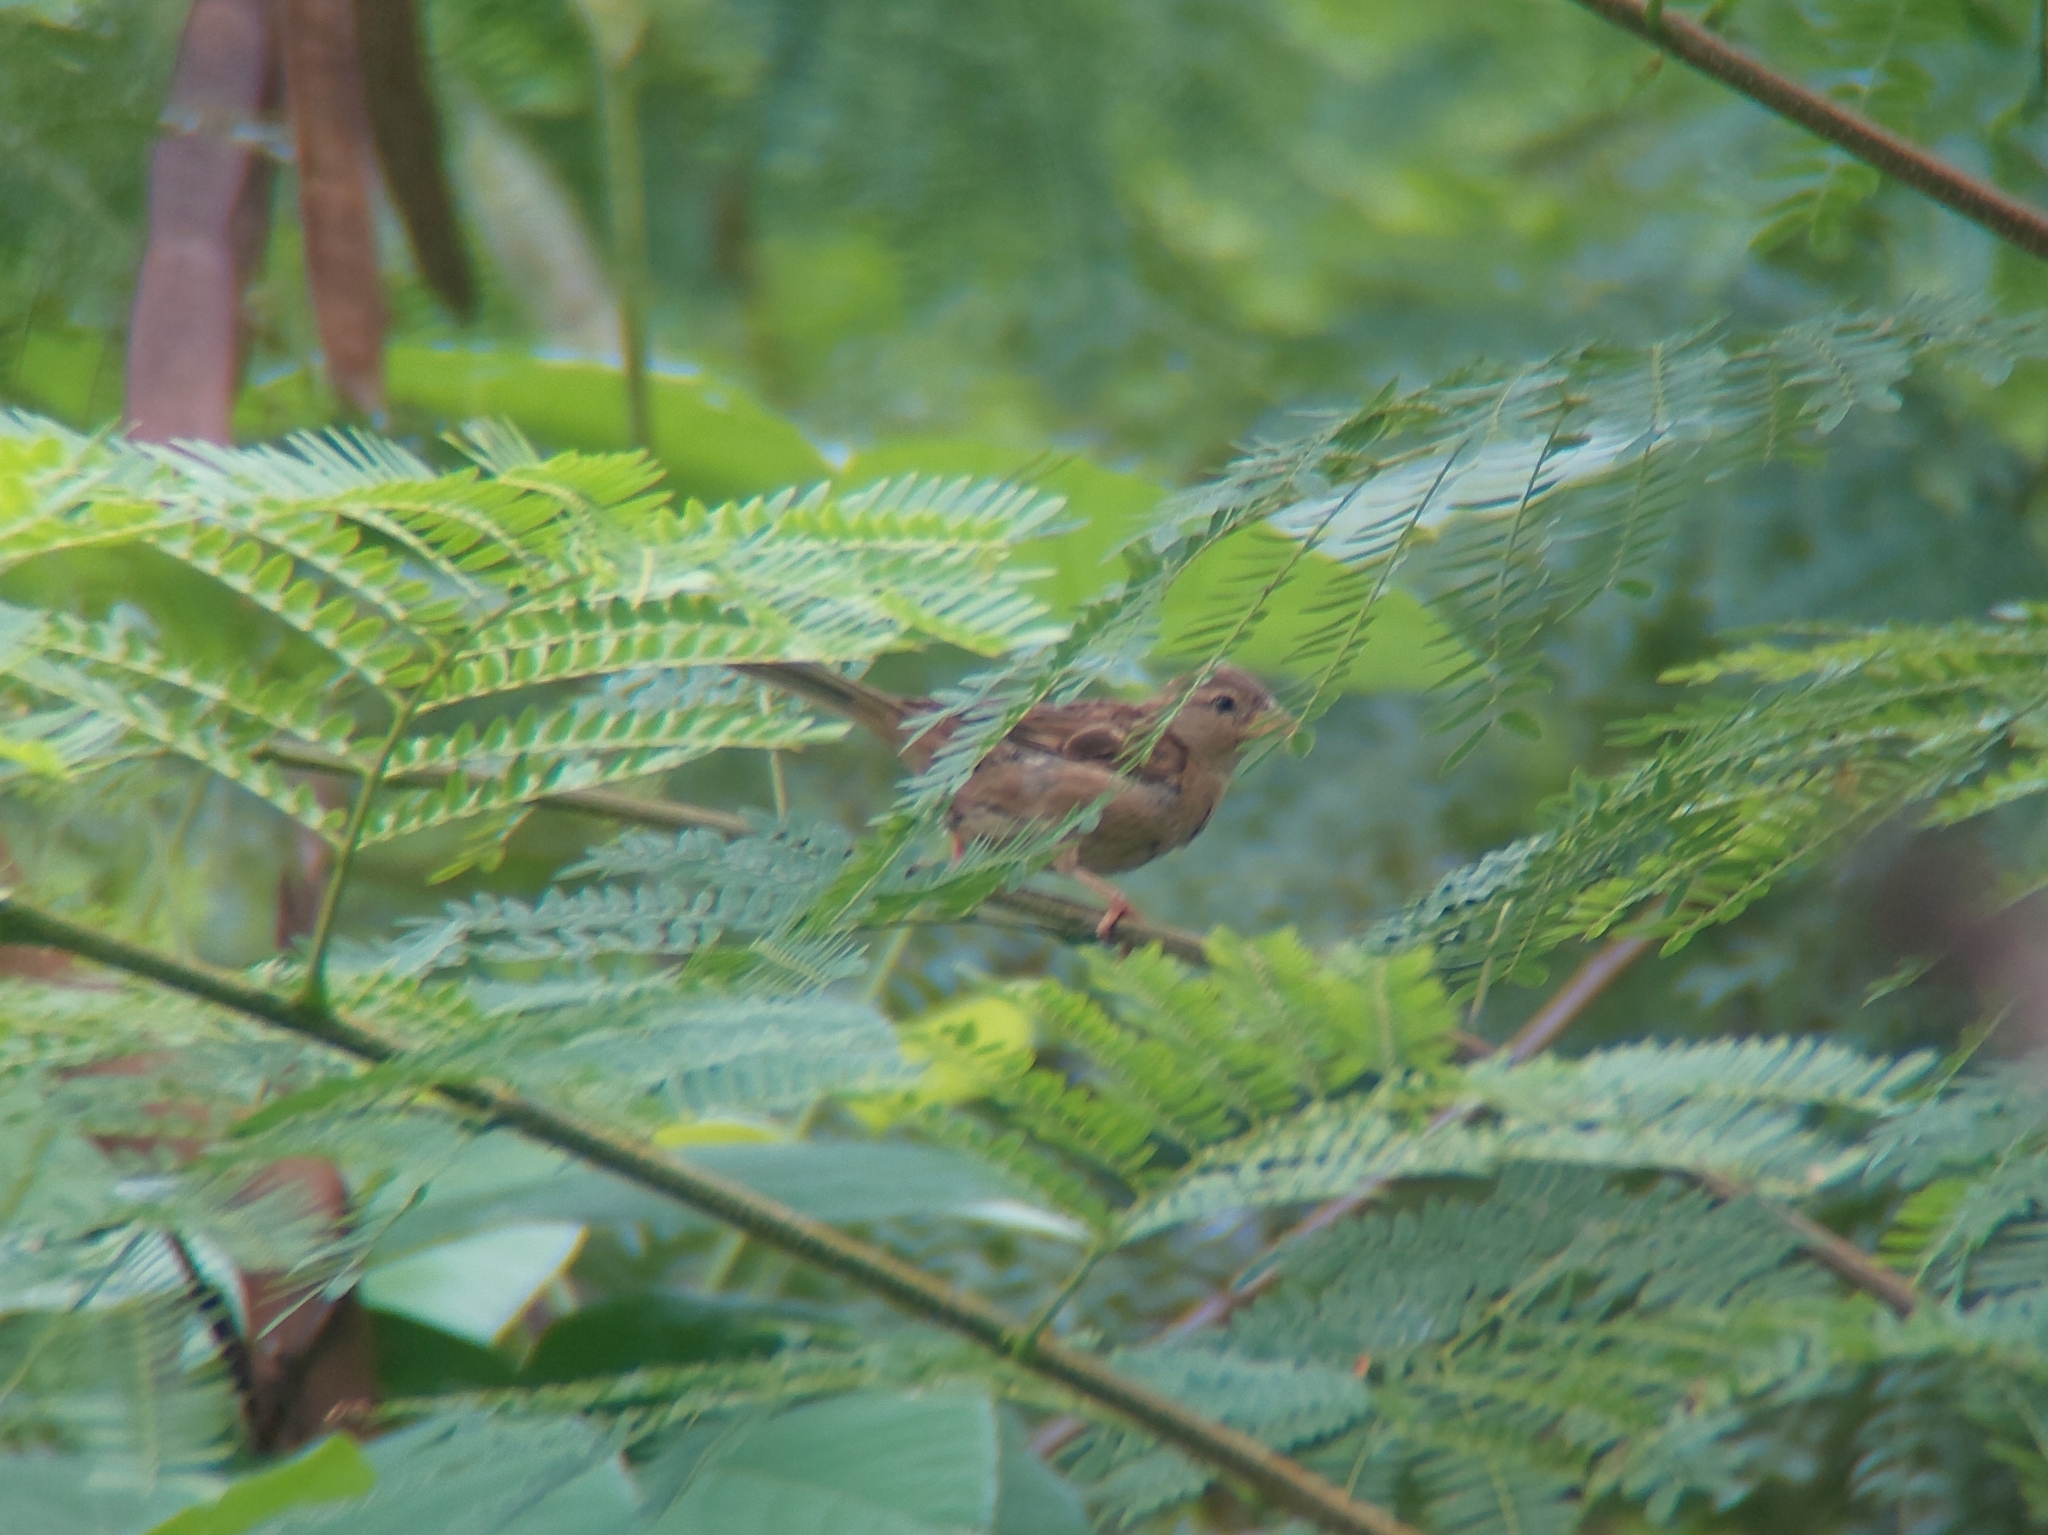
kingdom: Animalia
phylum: Chordata
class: Aves
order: Passeriformes
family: Passeridae
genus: Passer
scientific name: Passer domesticus
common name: House sparrow
